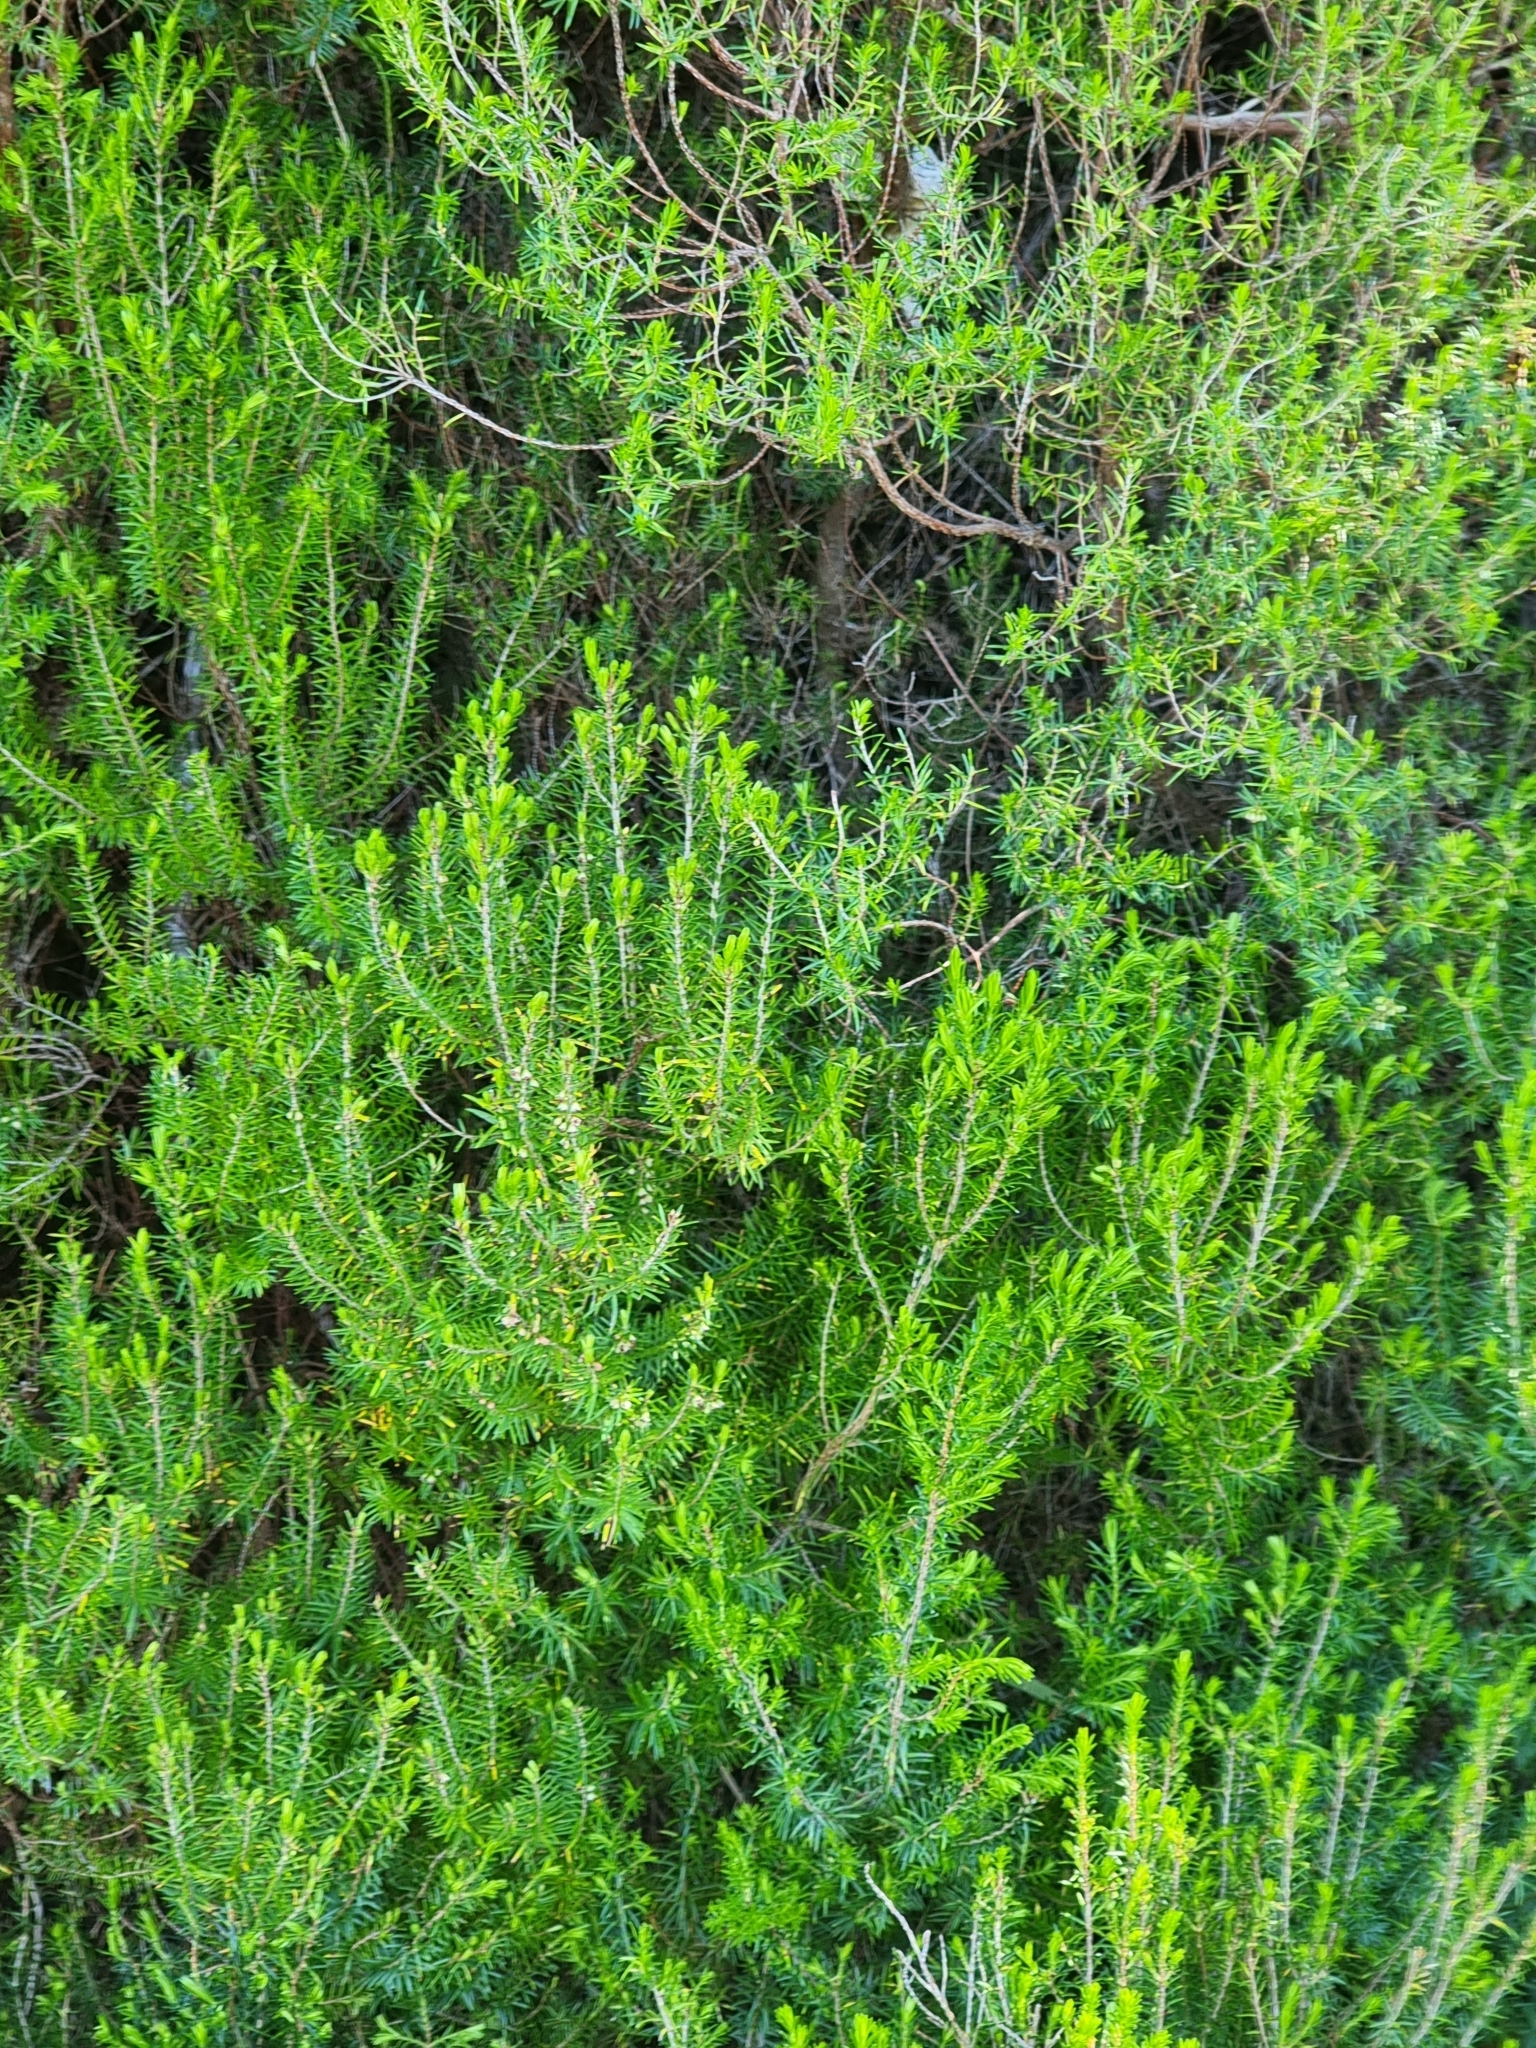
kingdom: Plantae
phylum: Tracheophyta
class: Magnoliopsida
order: Ericales
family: Ericaceae
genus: Erica
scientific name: Erica platycodon
